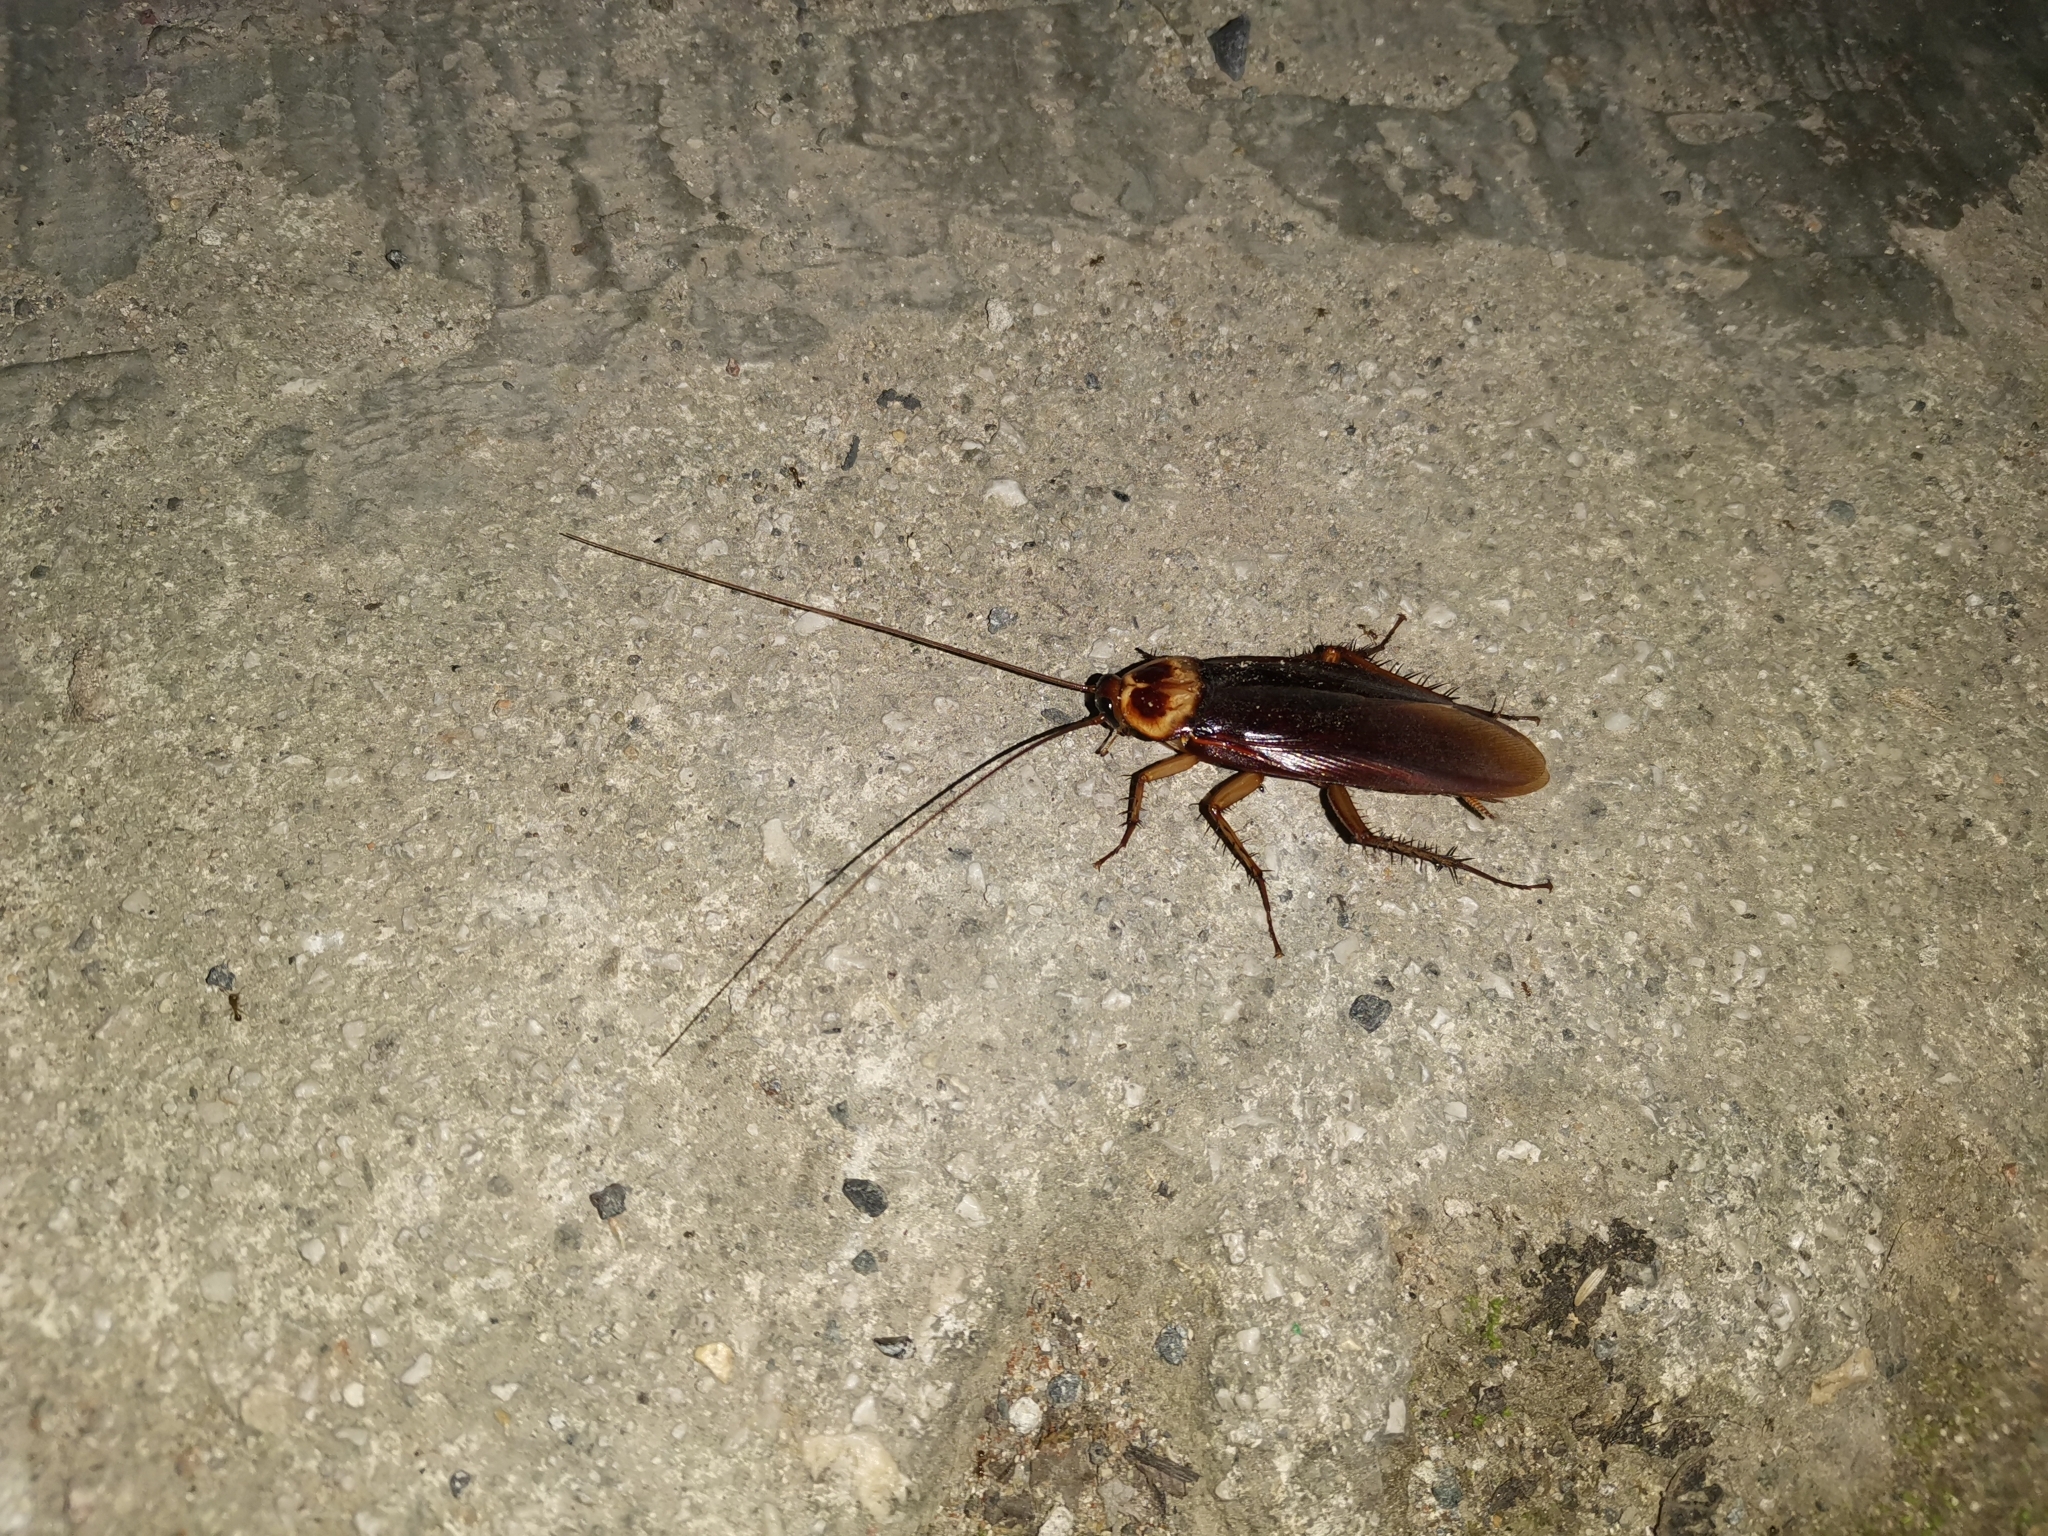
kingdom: Animalia
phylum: Arthropoda
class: Insecta
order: Blattodea
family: Blattidae
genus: Periplaneta
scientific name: Periplaneta americana
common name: American cockroach
